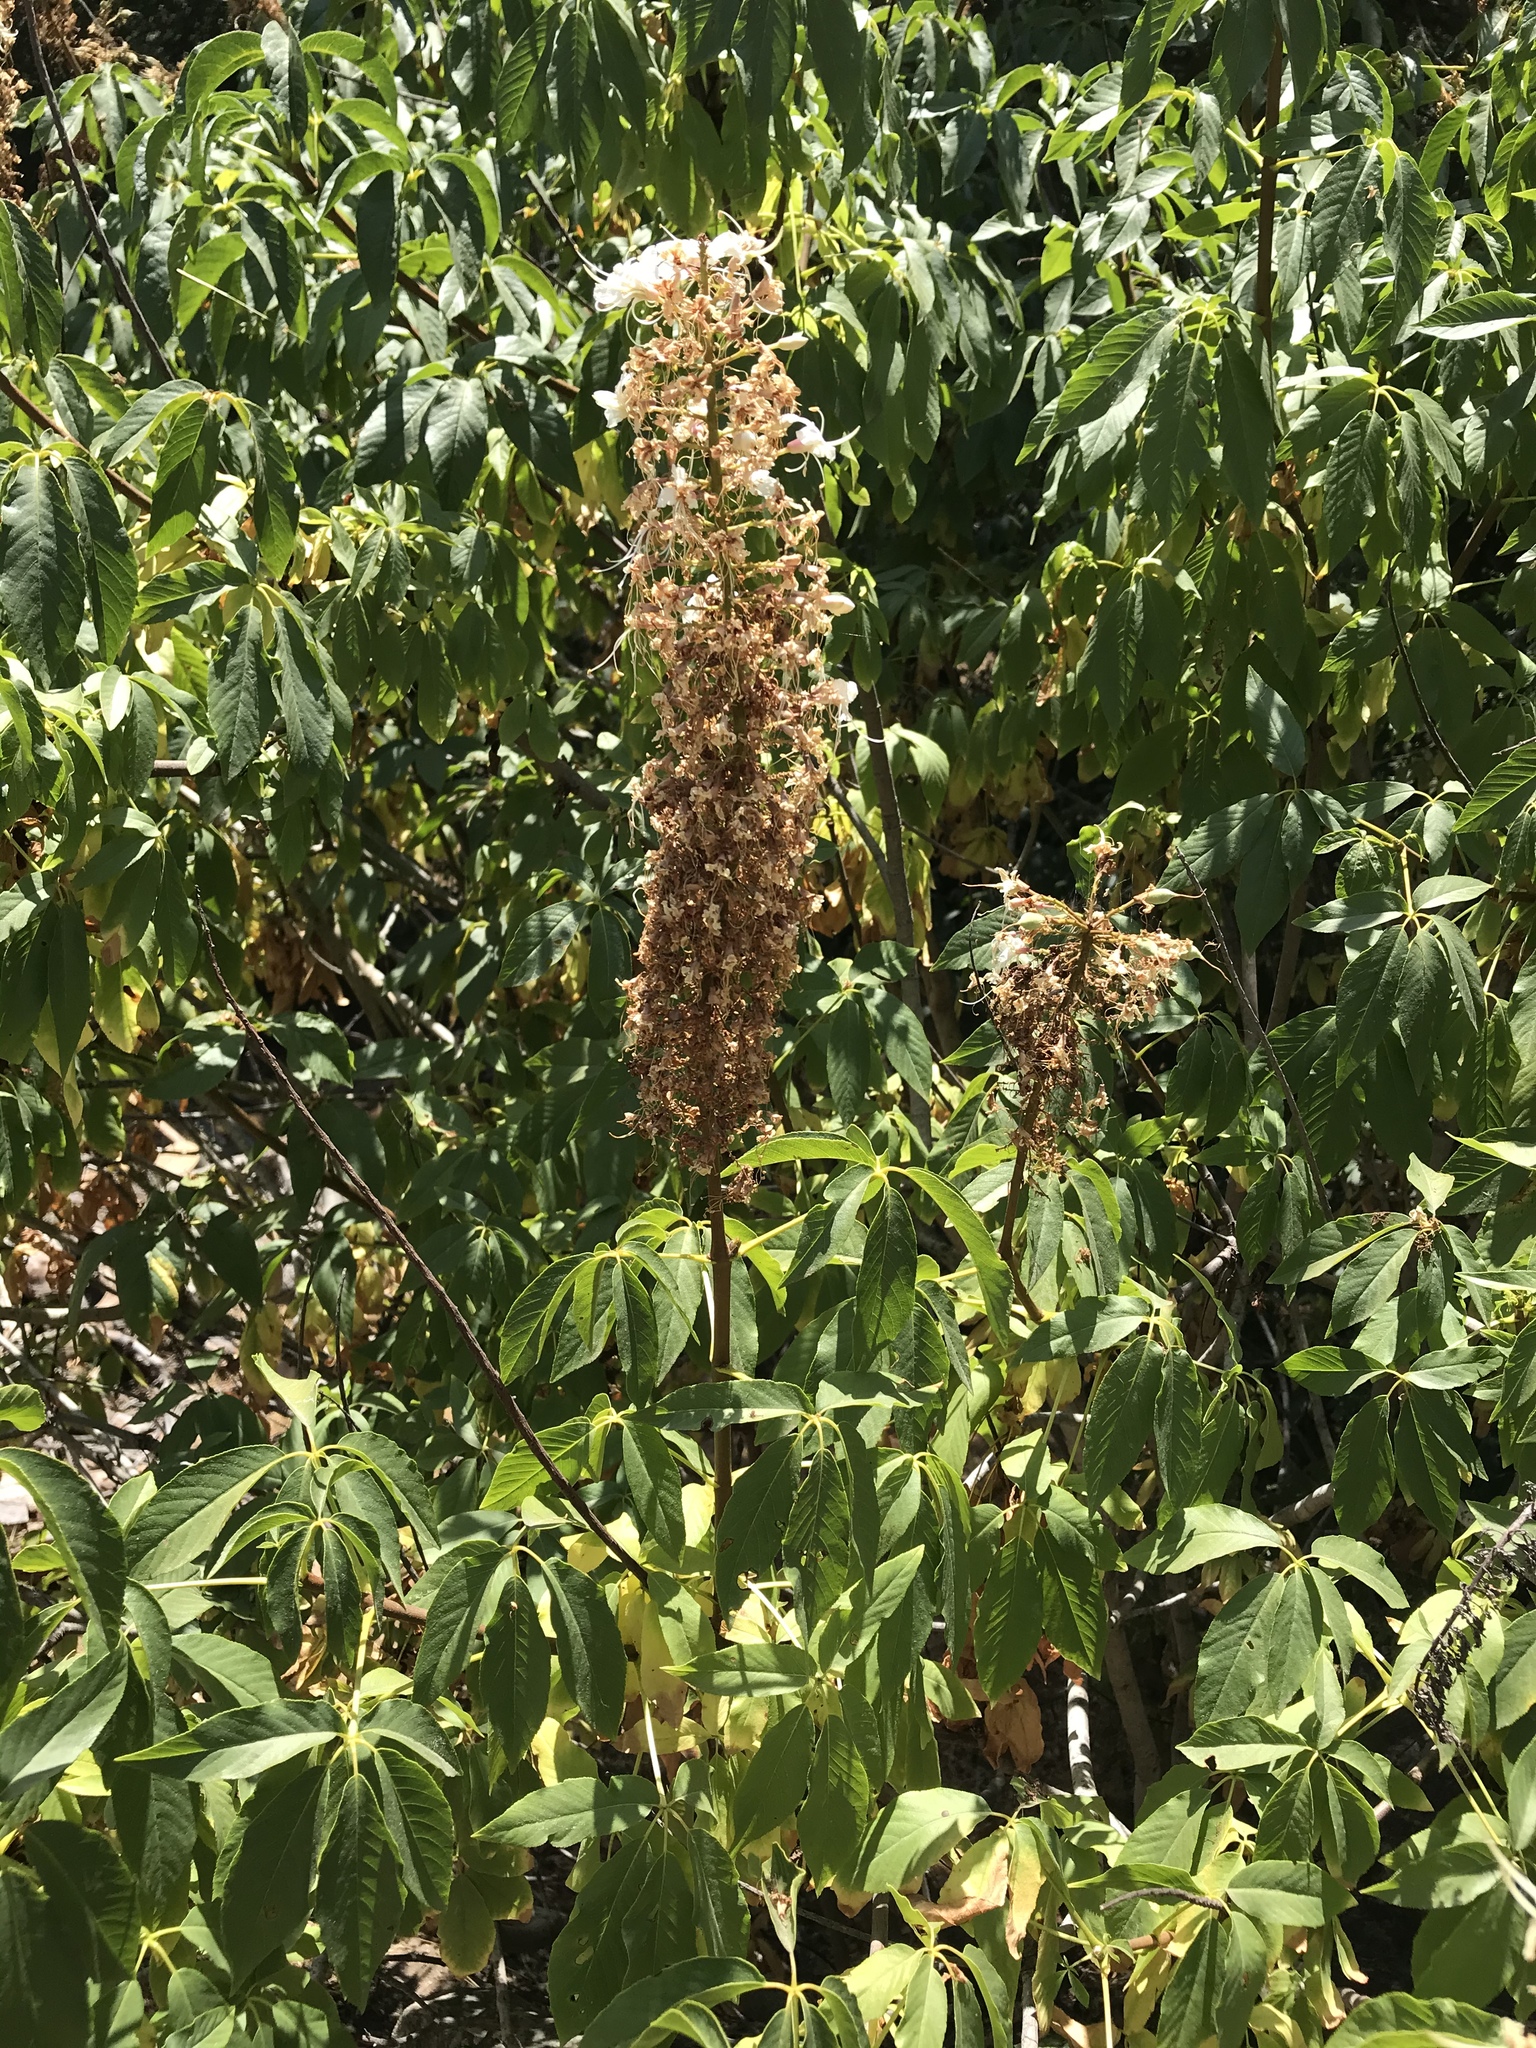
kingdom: Plantae
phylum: Tracheophyta
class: Magnoliopsida
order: Sapindales
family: Sapindaceae
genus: Aesculus
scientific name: Aesculus californica
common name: California buckeye
